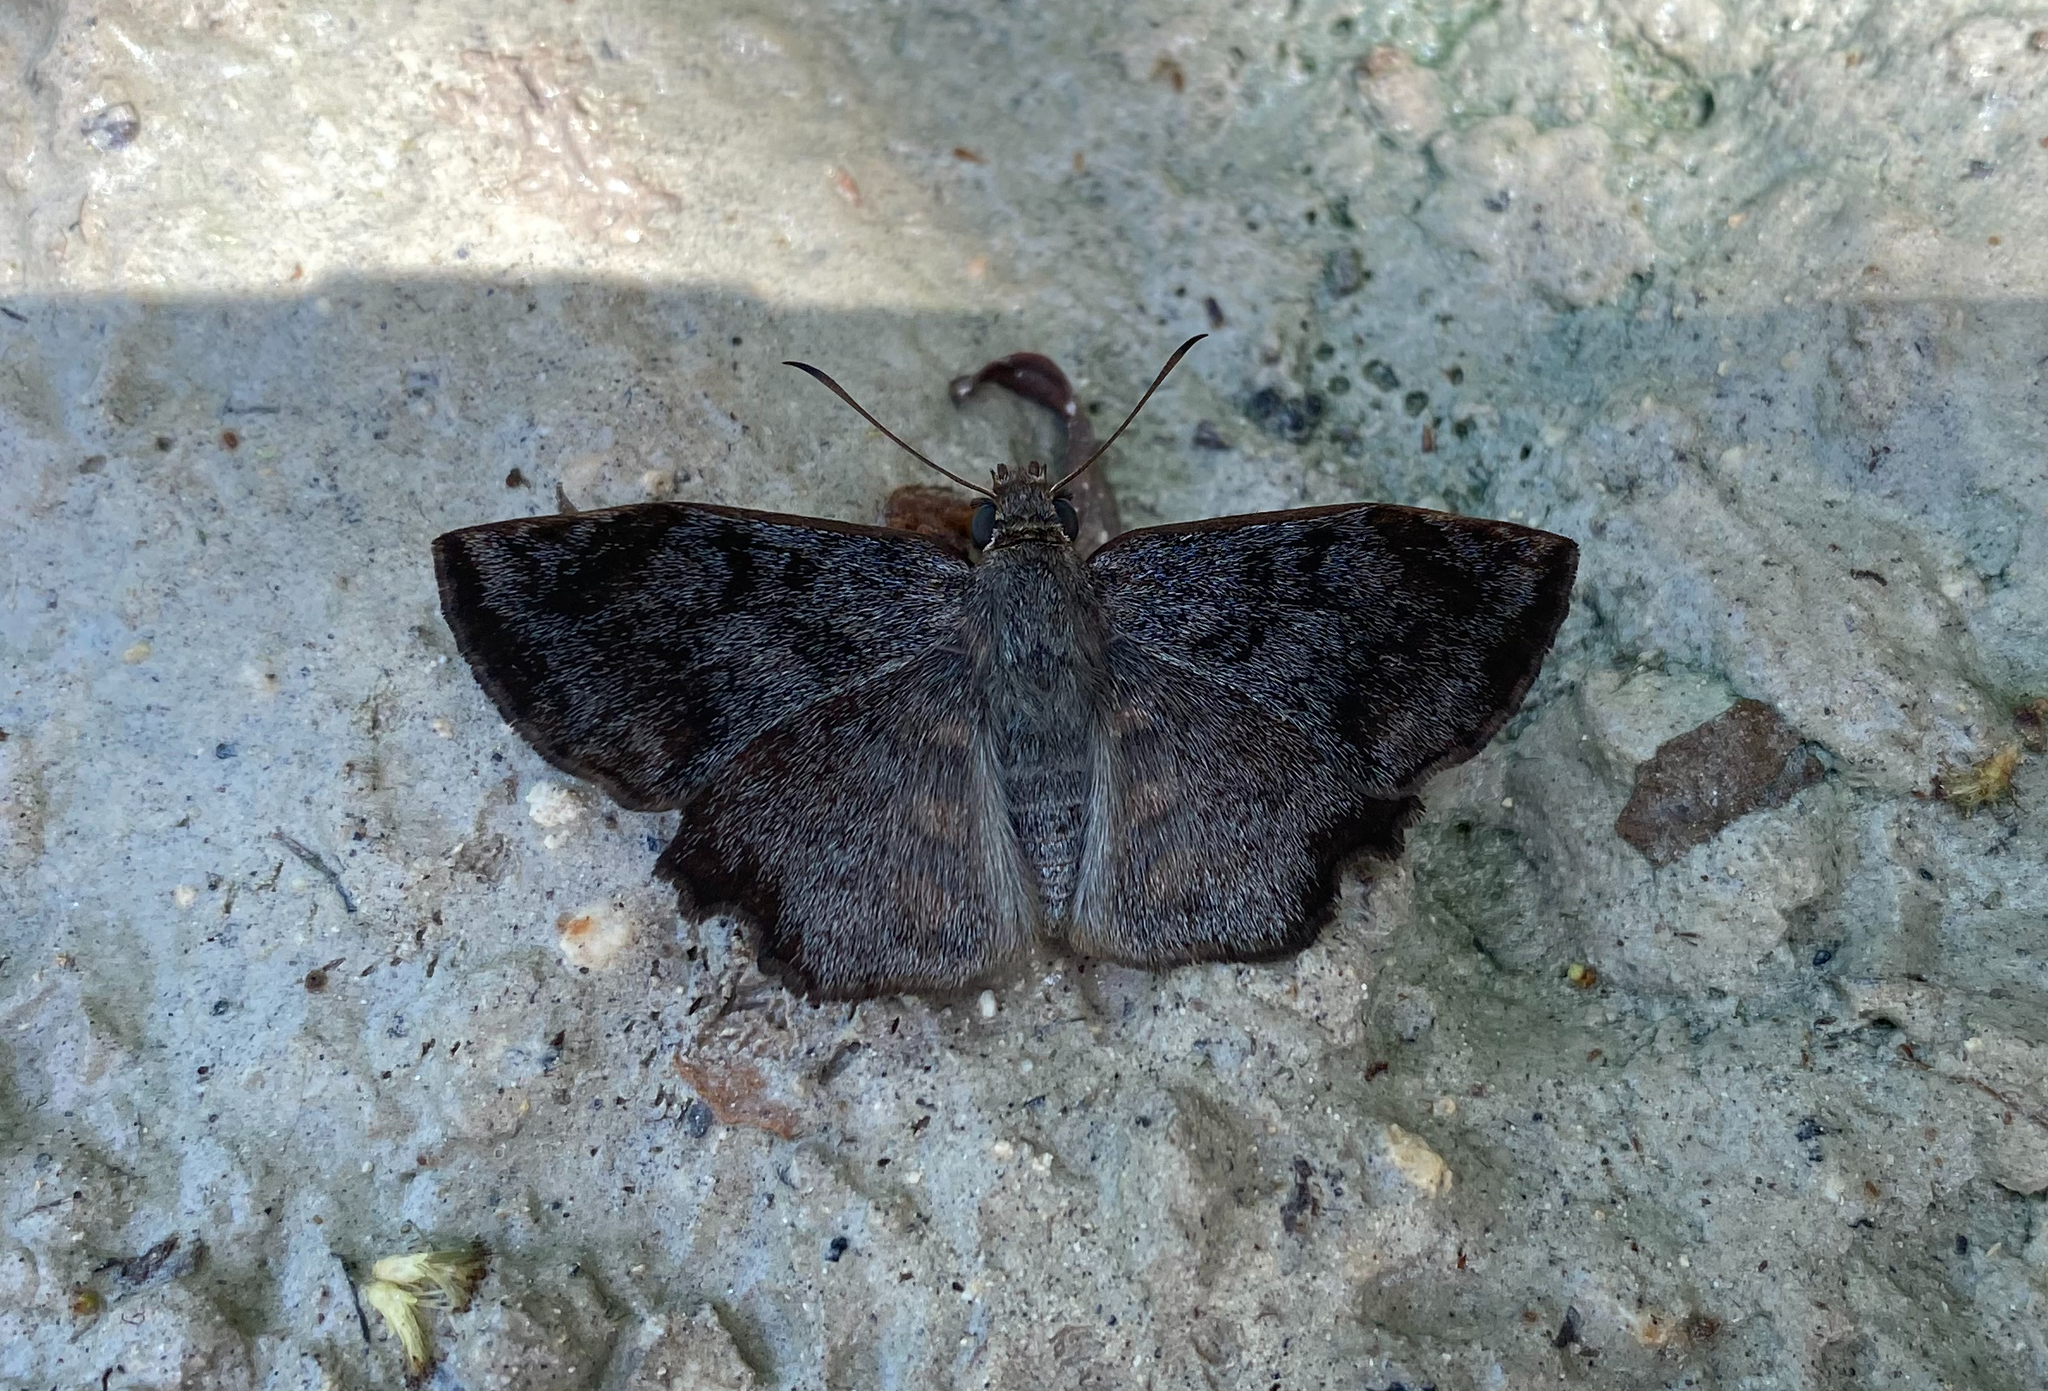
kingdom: Animalia
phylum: Arthropoda
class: Insecta
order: Lepidoptera
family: Hesperiidae
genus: Antigonus
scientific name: Antigonus erosus
